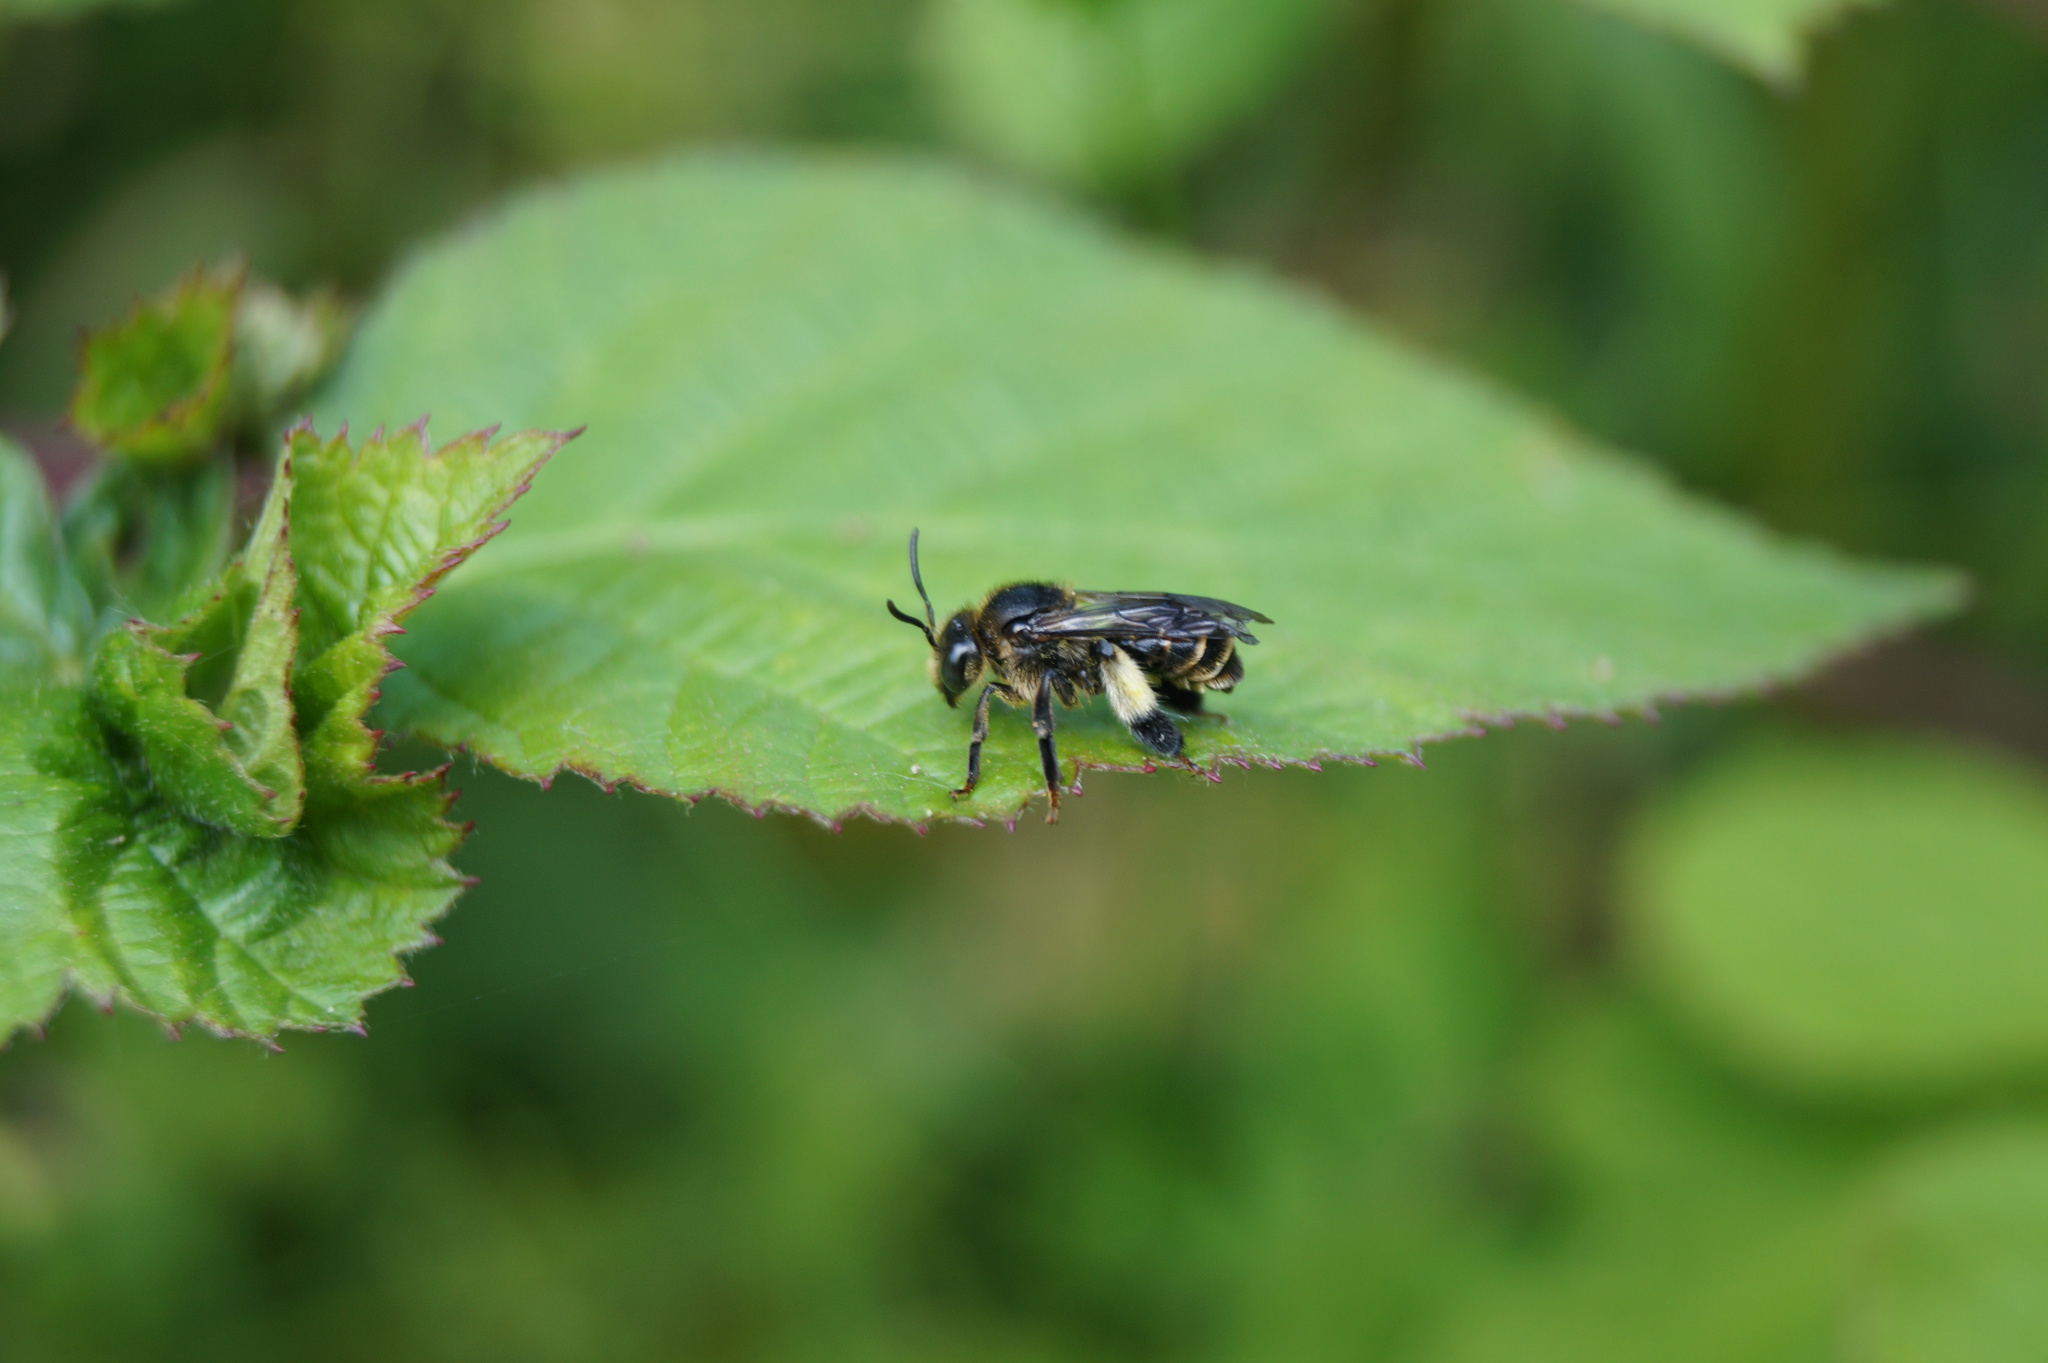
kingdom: Animalia
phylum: Arthropoda
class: Insecta
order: Hymenoptera
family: Melittidae
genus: Macropis
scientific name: Macropis europaea
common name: Yellow loosestrife bee
